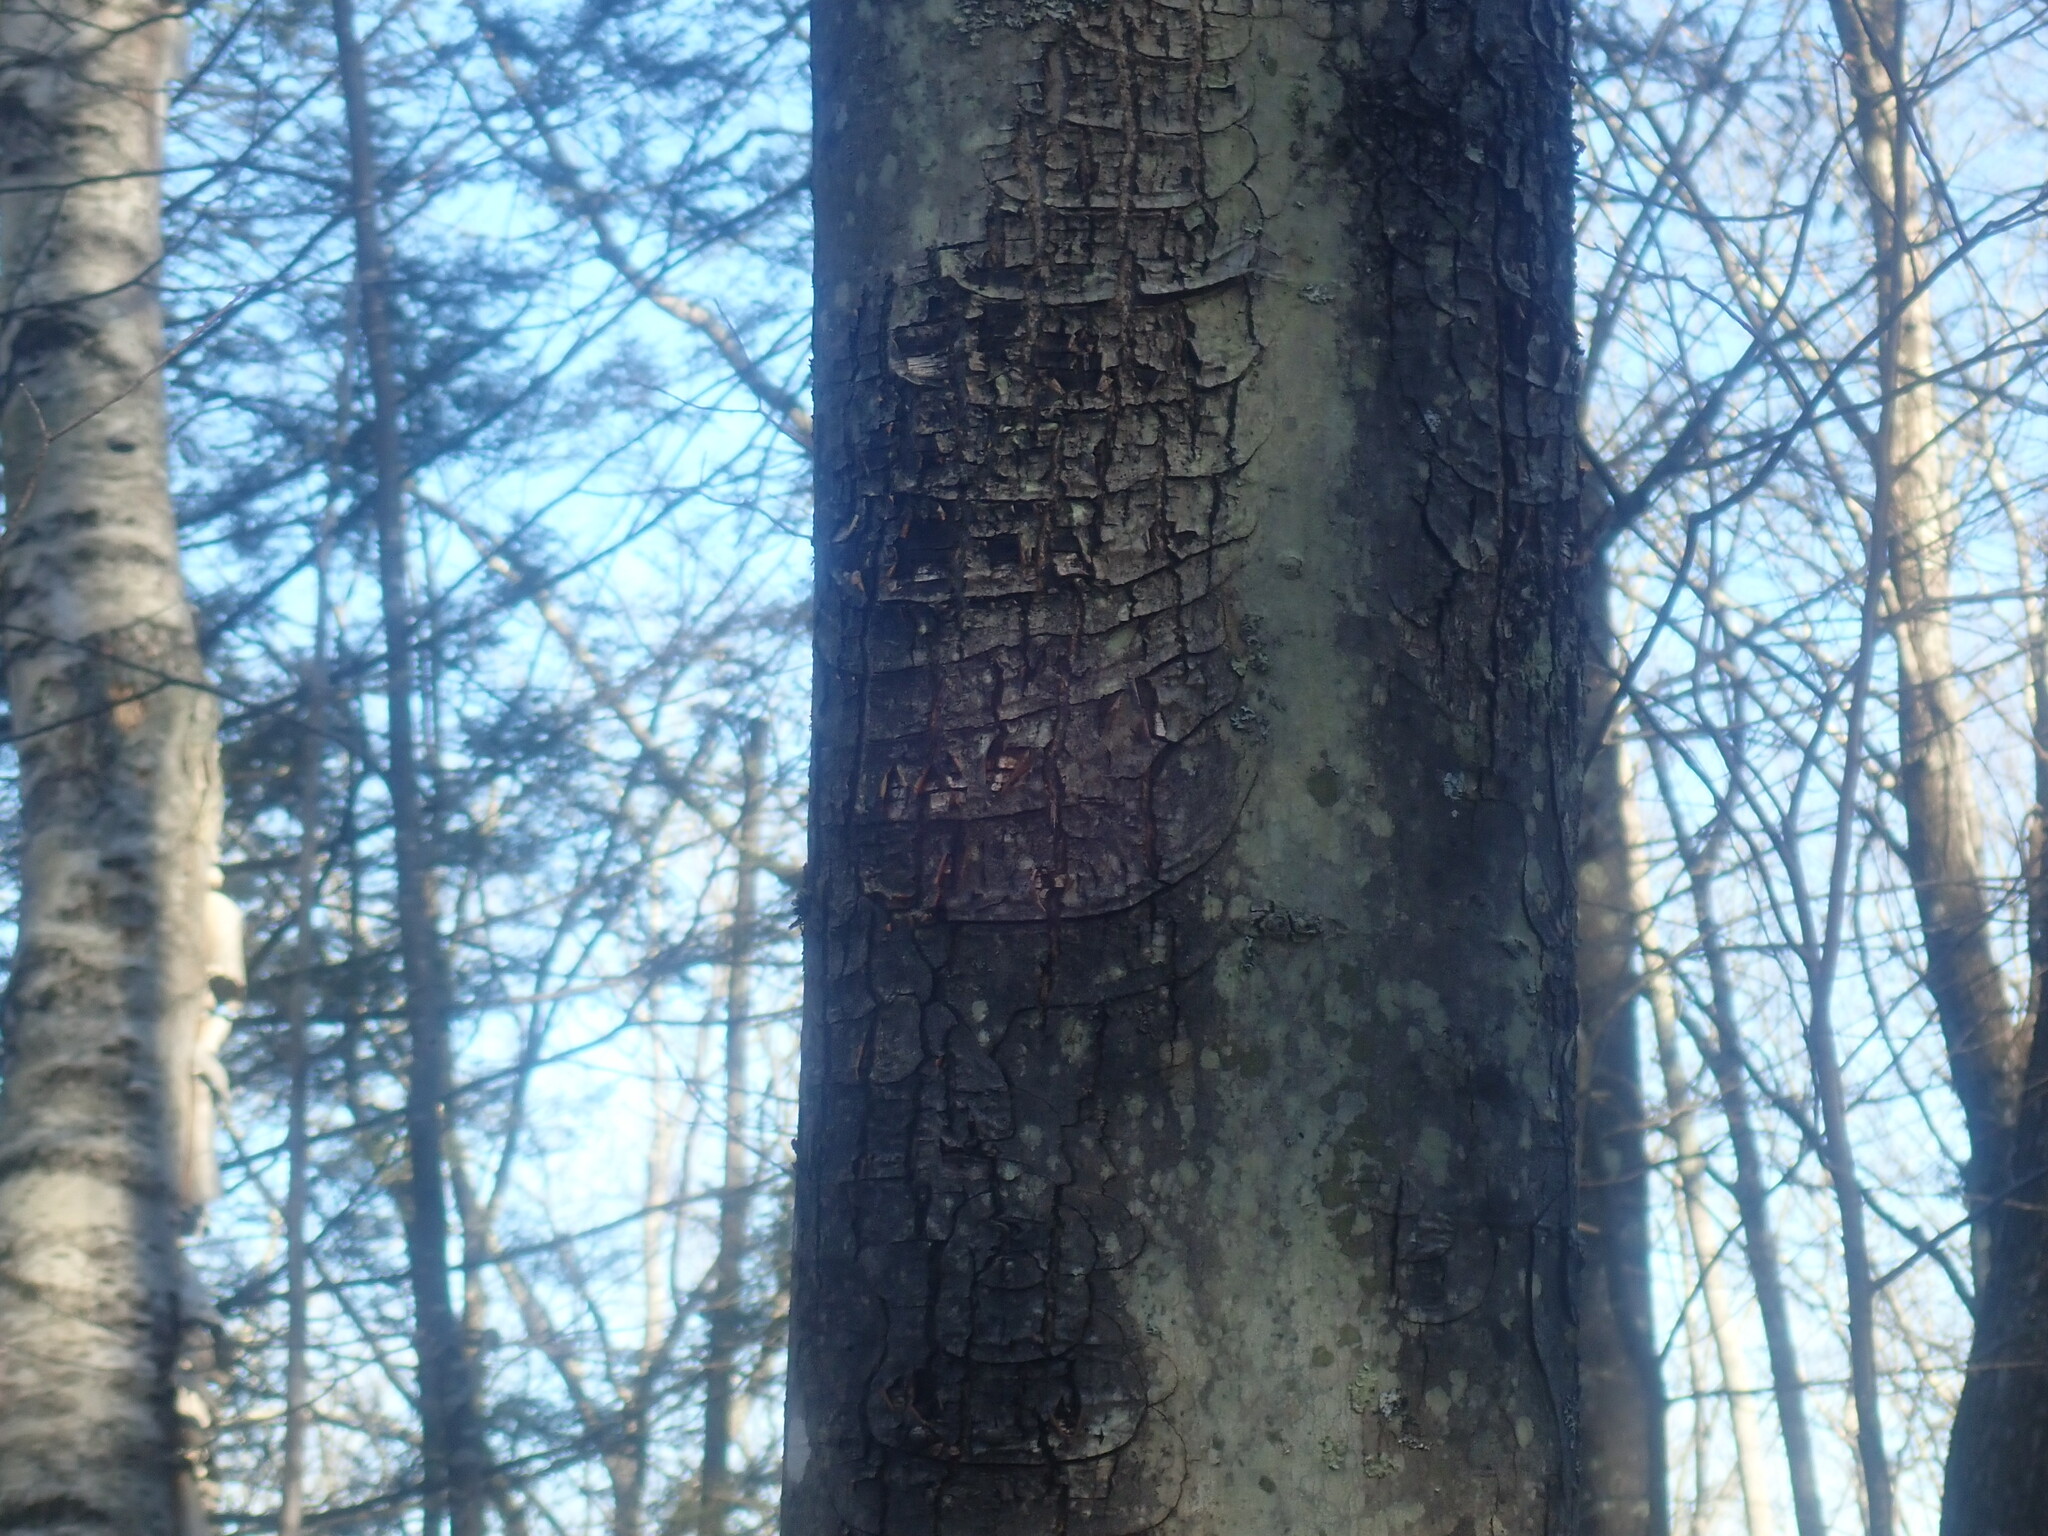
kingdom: Plantae
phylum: Tracheophyta
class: Magnoliopsida
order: Sapindales
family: Sapindaceae
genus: Acer
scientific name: Acer rubrum
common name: Red maple
